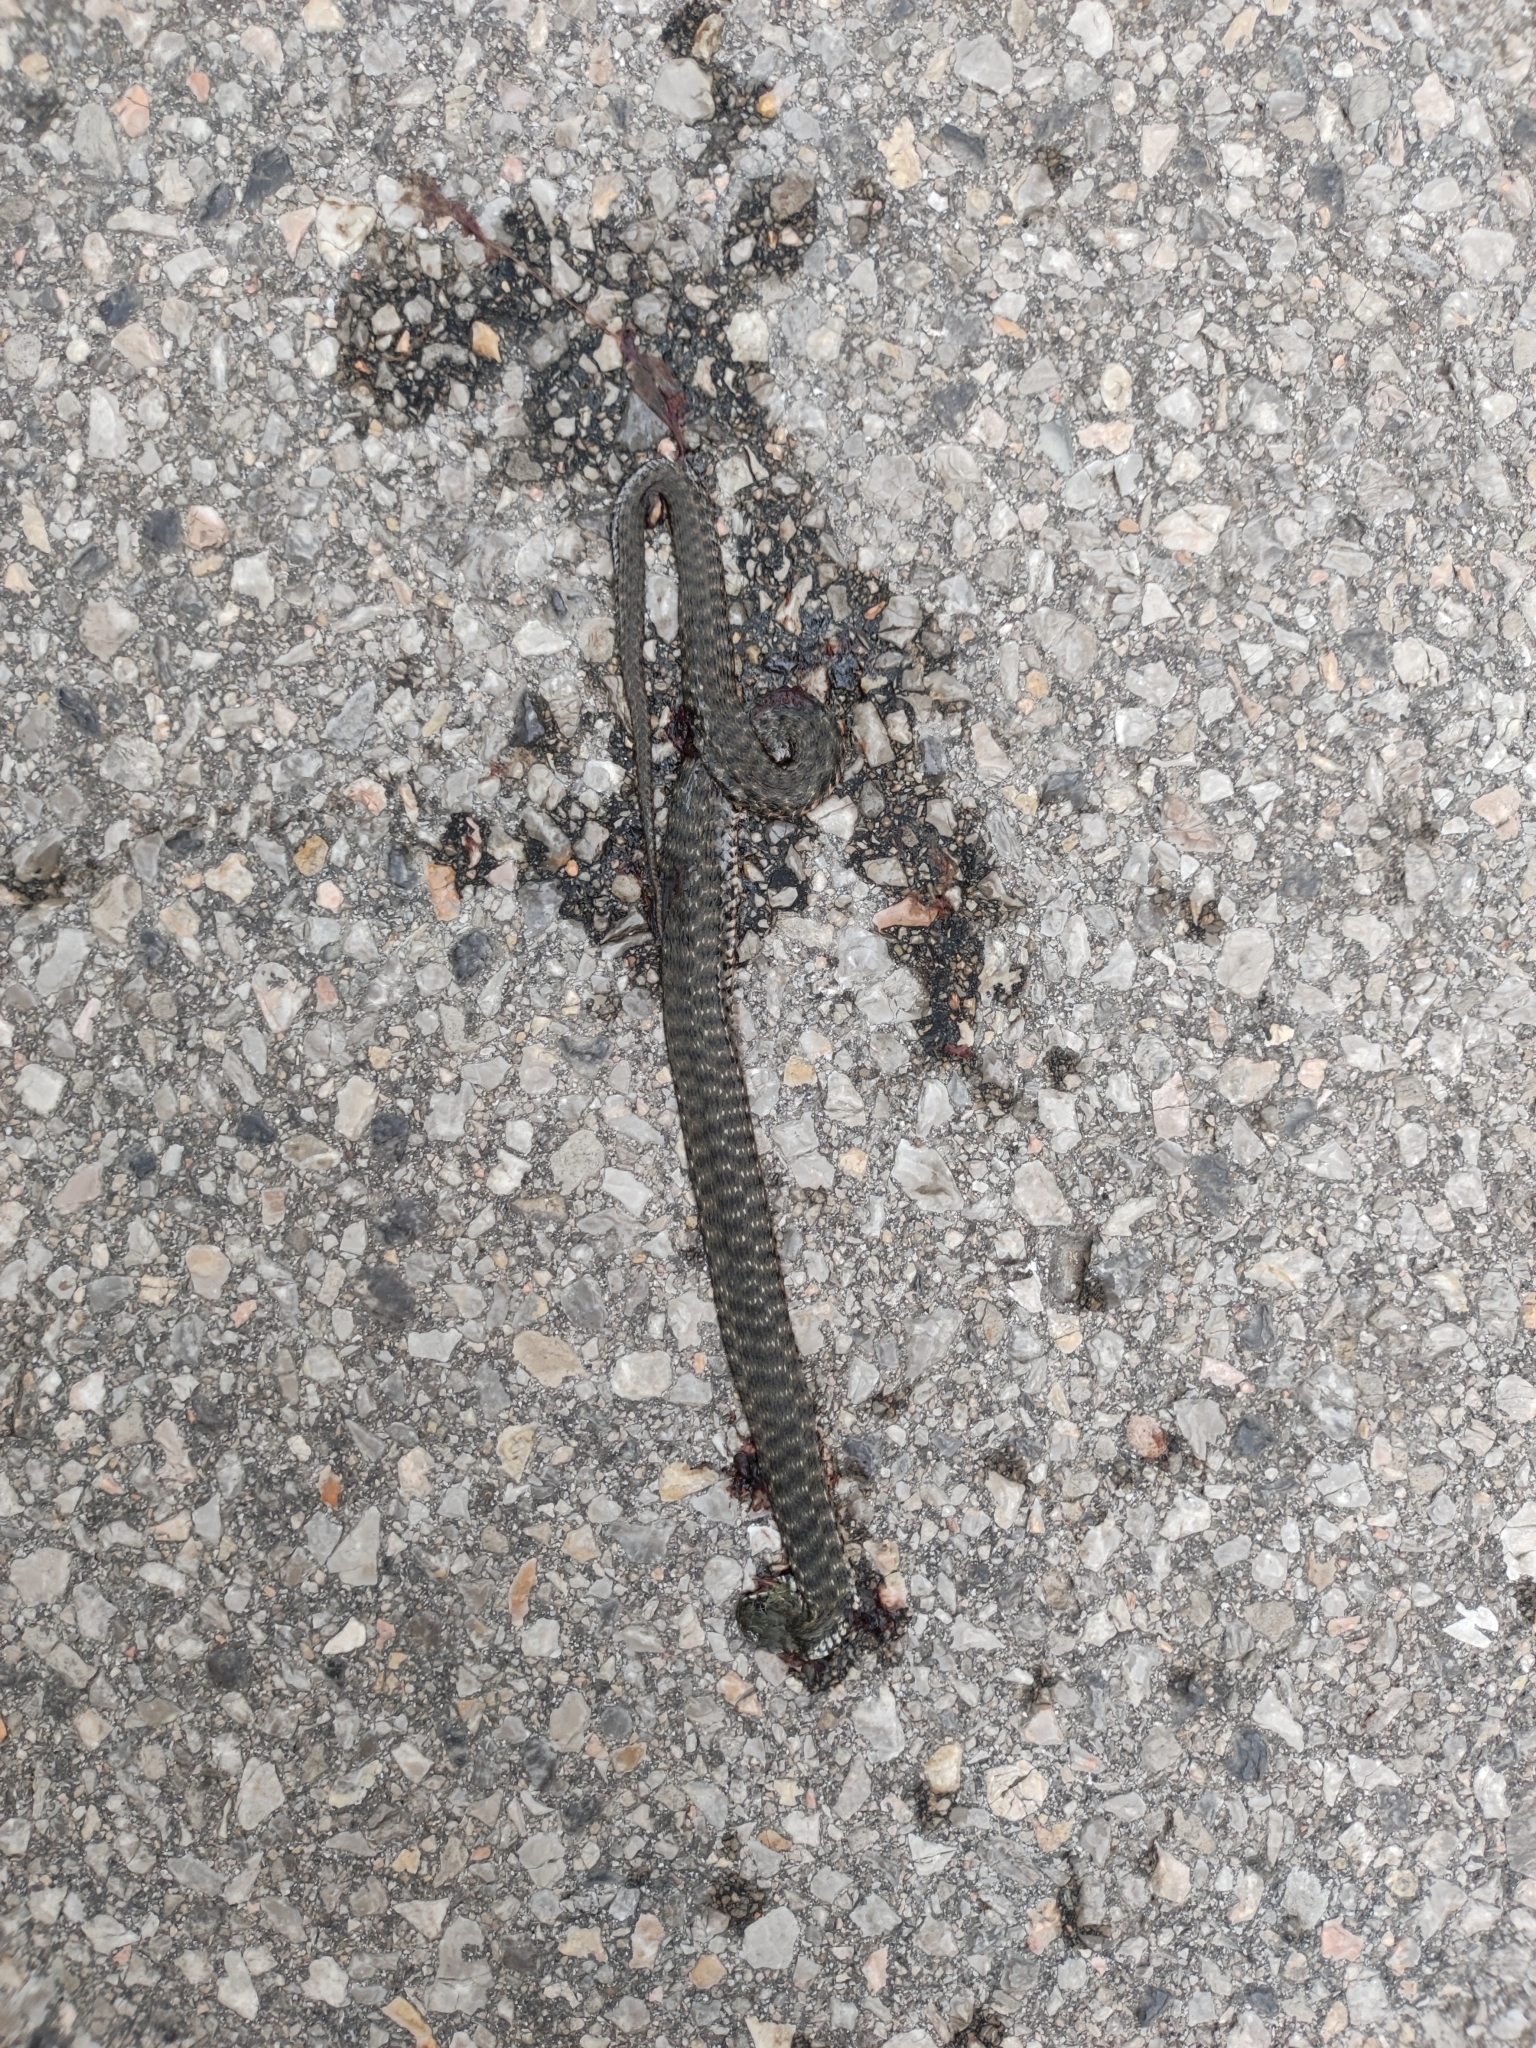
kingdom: Animalia
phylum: Chordata
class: Squamata
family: Colubridae
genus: Natrix
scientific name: Natrix tessellata
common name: Dice snake
